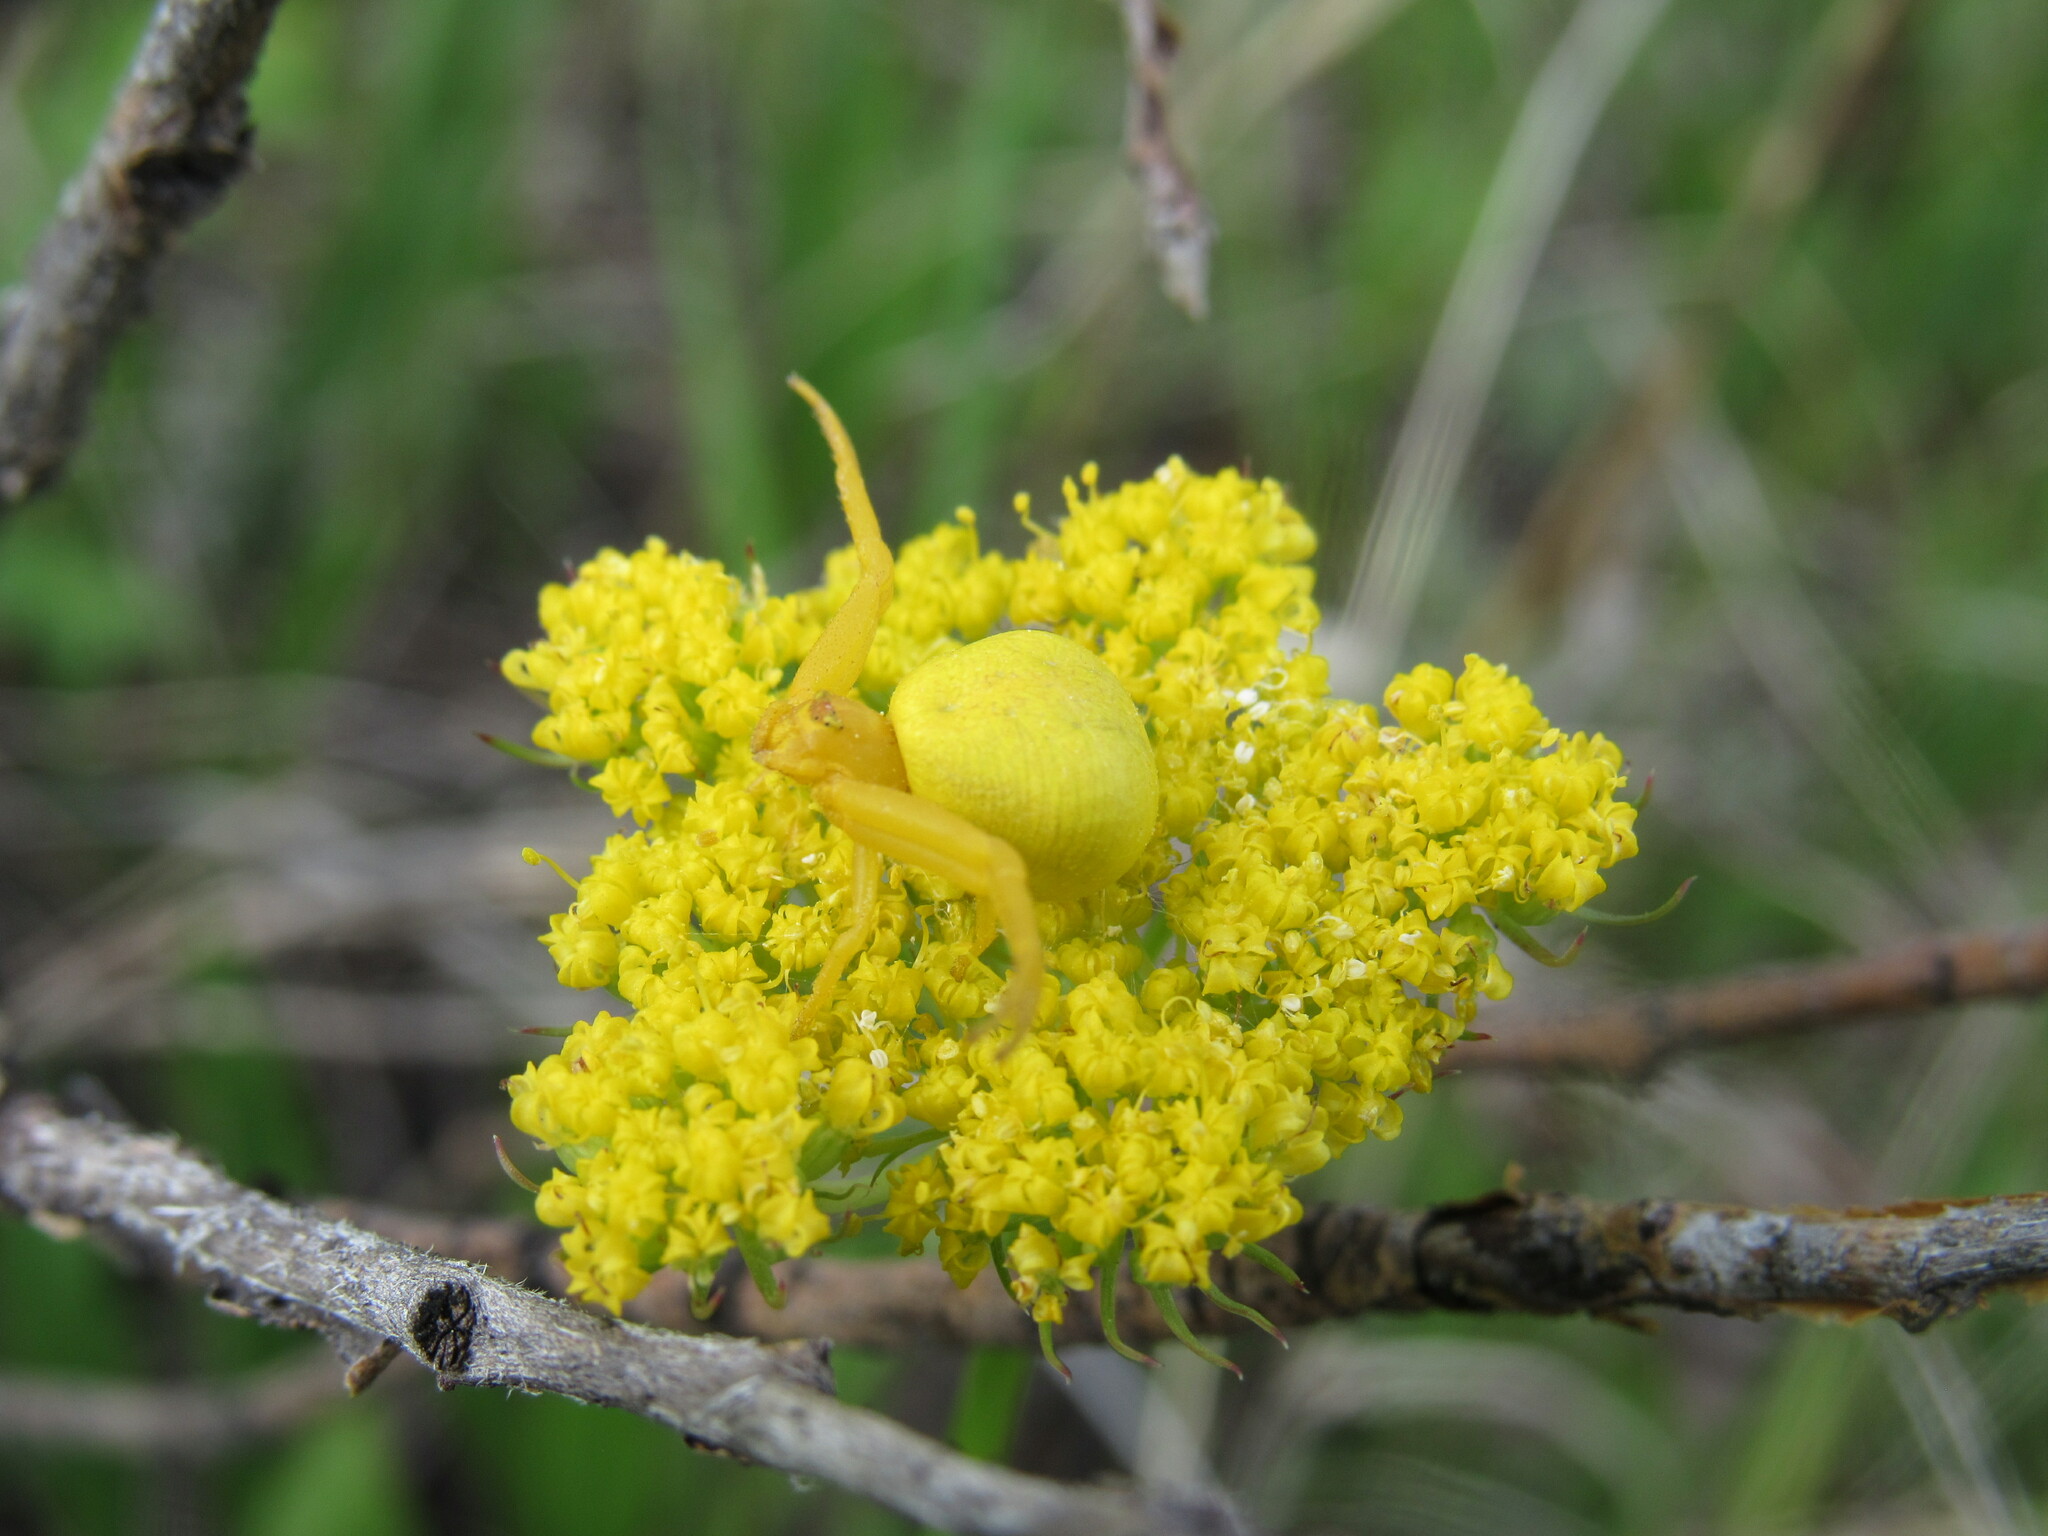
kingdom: Animalia
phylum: Arthropoda
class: Arachnida
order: Araneae
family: Thomisidae
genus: Misumena
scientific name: Misumena vatia
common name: Goldenrod crab spider
